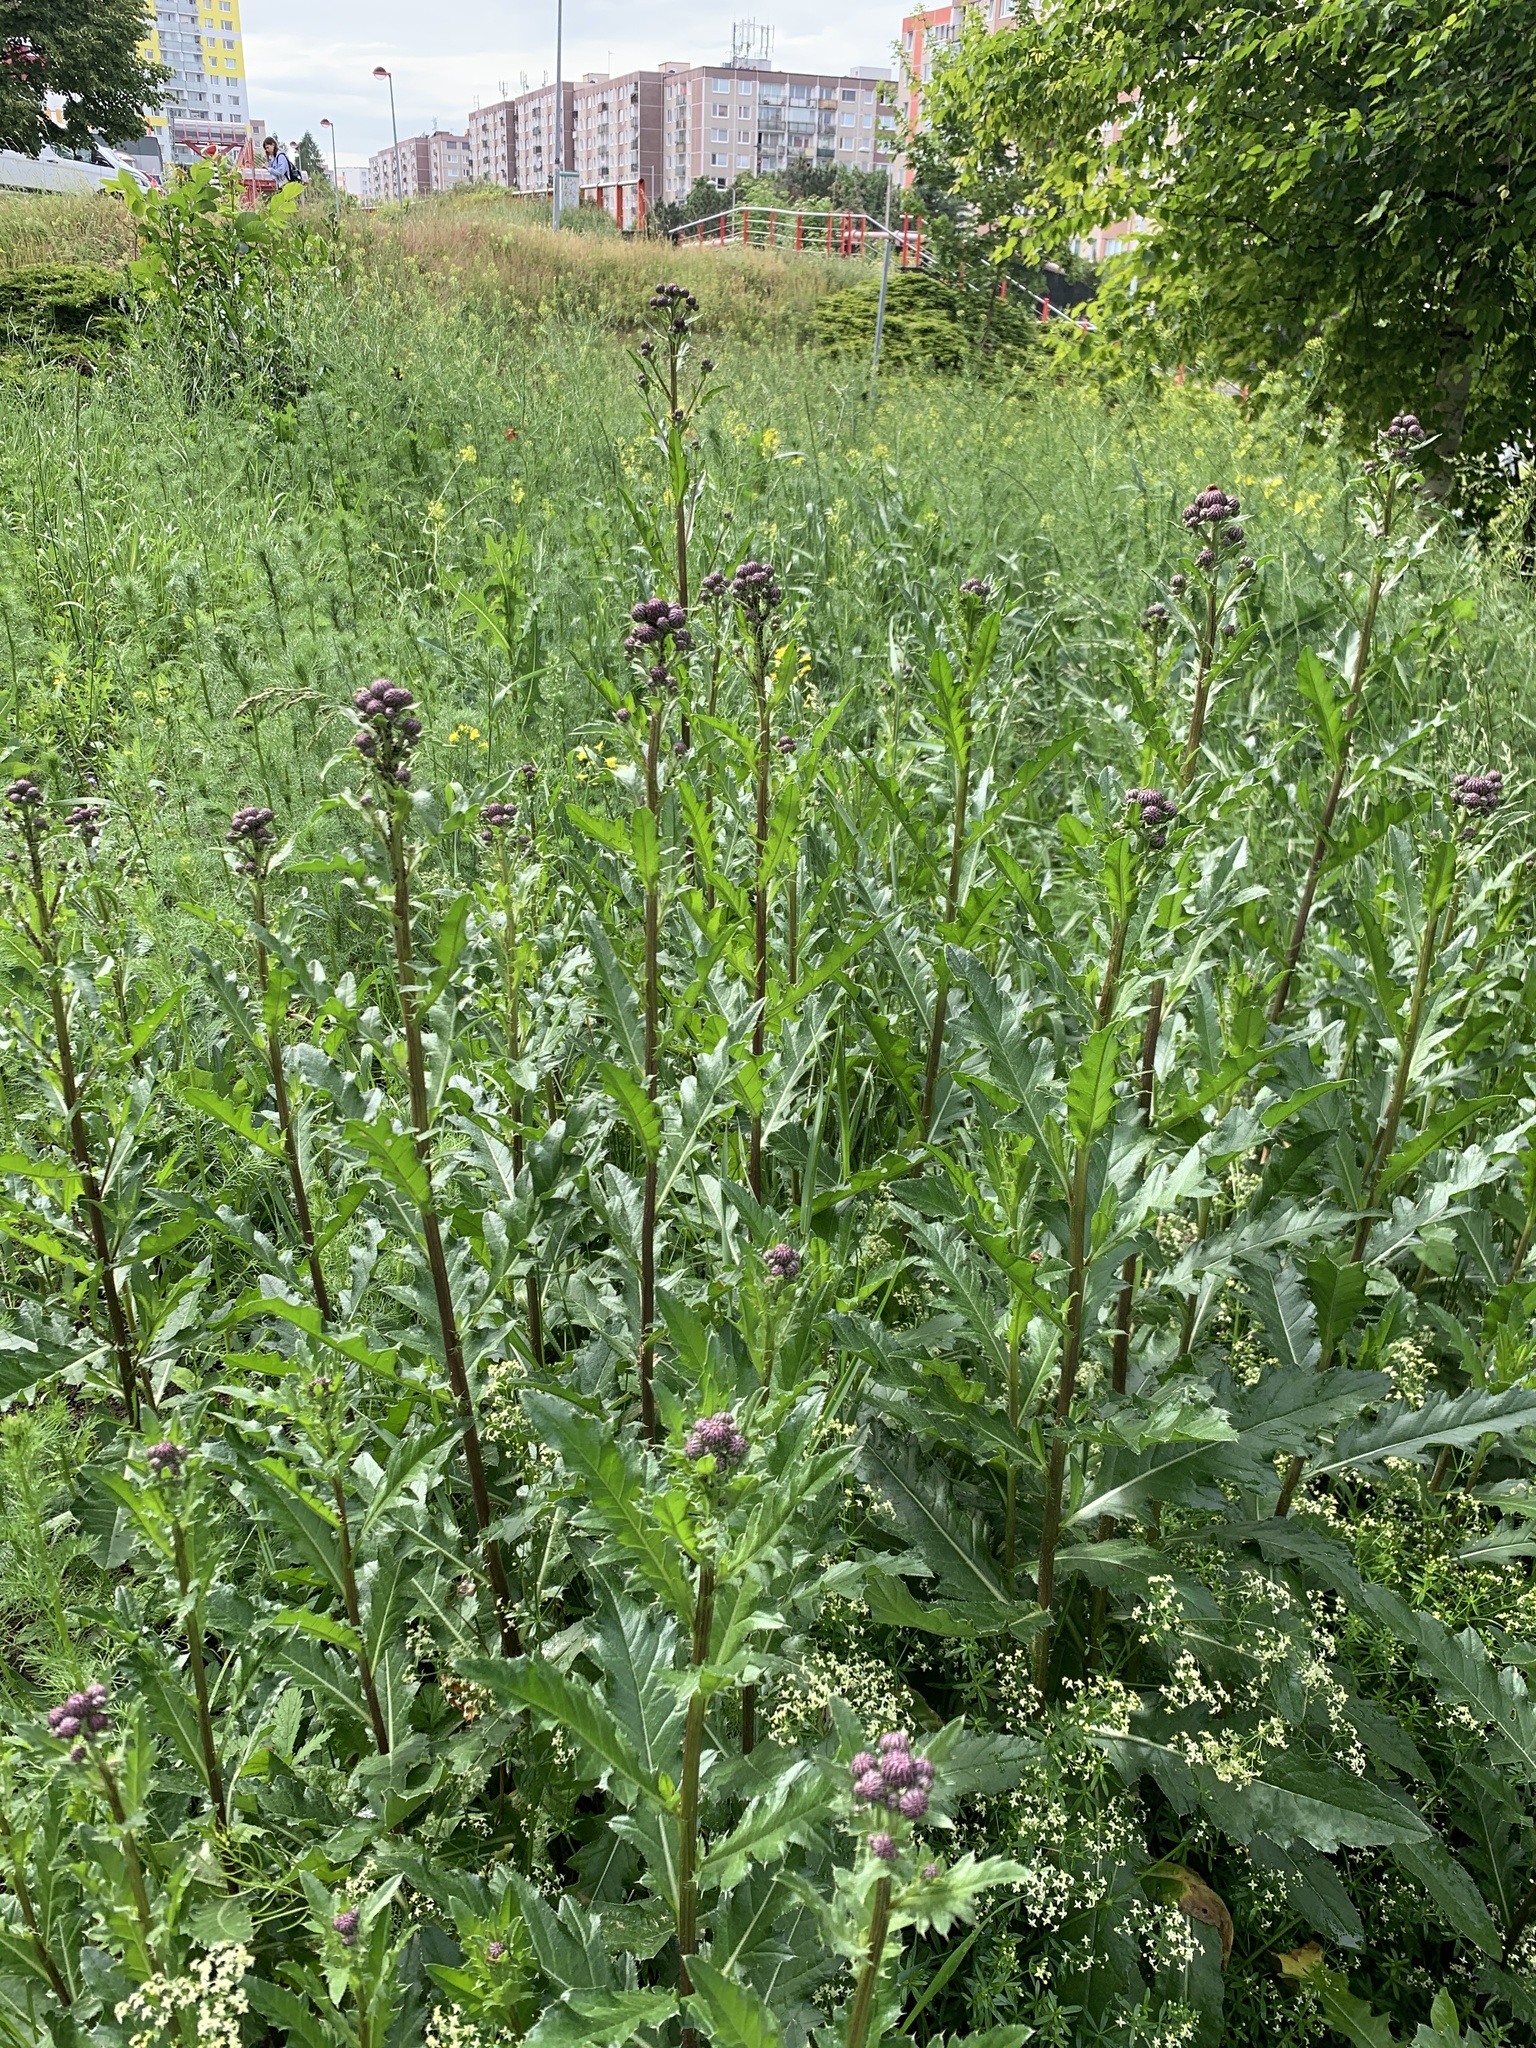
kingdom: Plantae
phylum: Tracheophyta
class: Magnoliopsida
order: Asterales
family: Asteraceae
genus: Cirsium
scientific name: Cirsium arvense
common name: Creeping thistle
